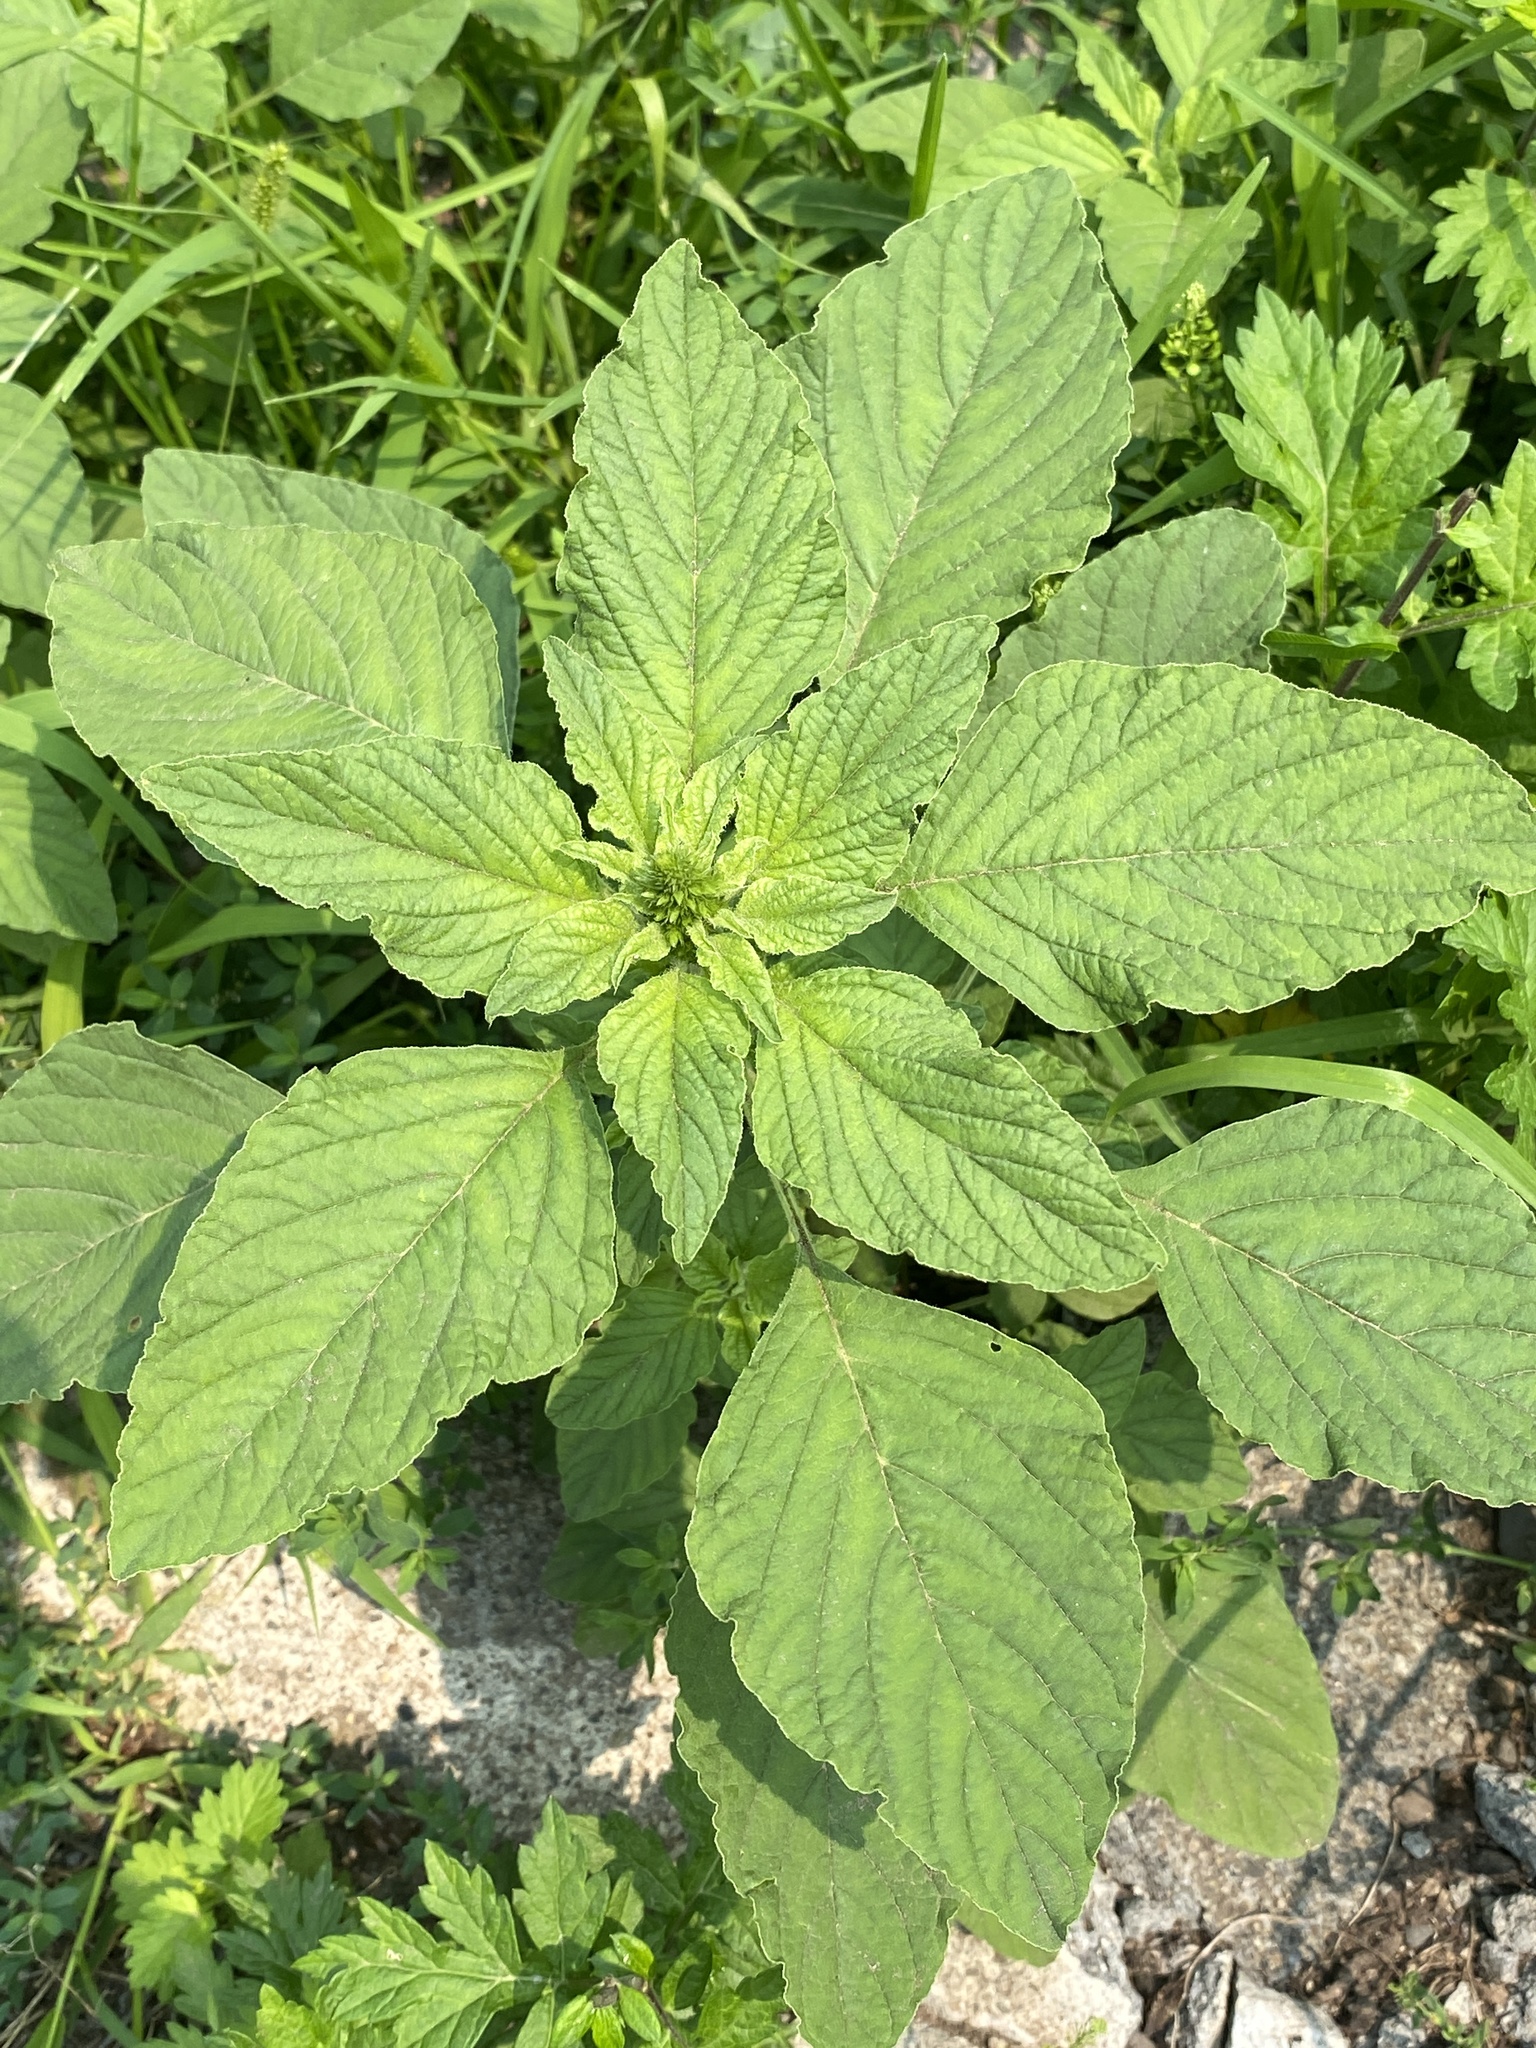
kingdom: Plantae
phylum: Tracheophyta
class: Magnoliopsida
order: Caryophyllales
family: Amaranthaceae
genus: Amaranthus
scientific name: Amaranthus retroflexus
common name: Redroot amaranth
